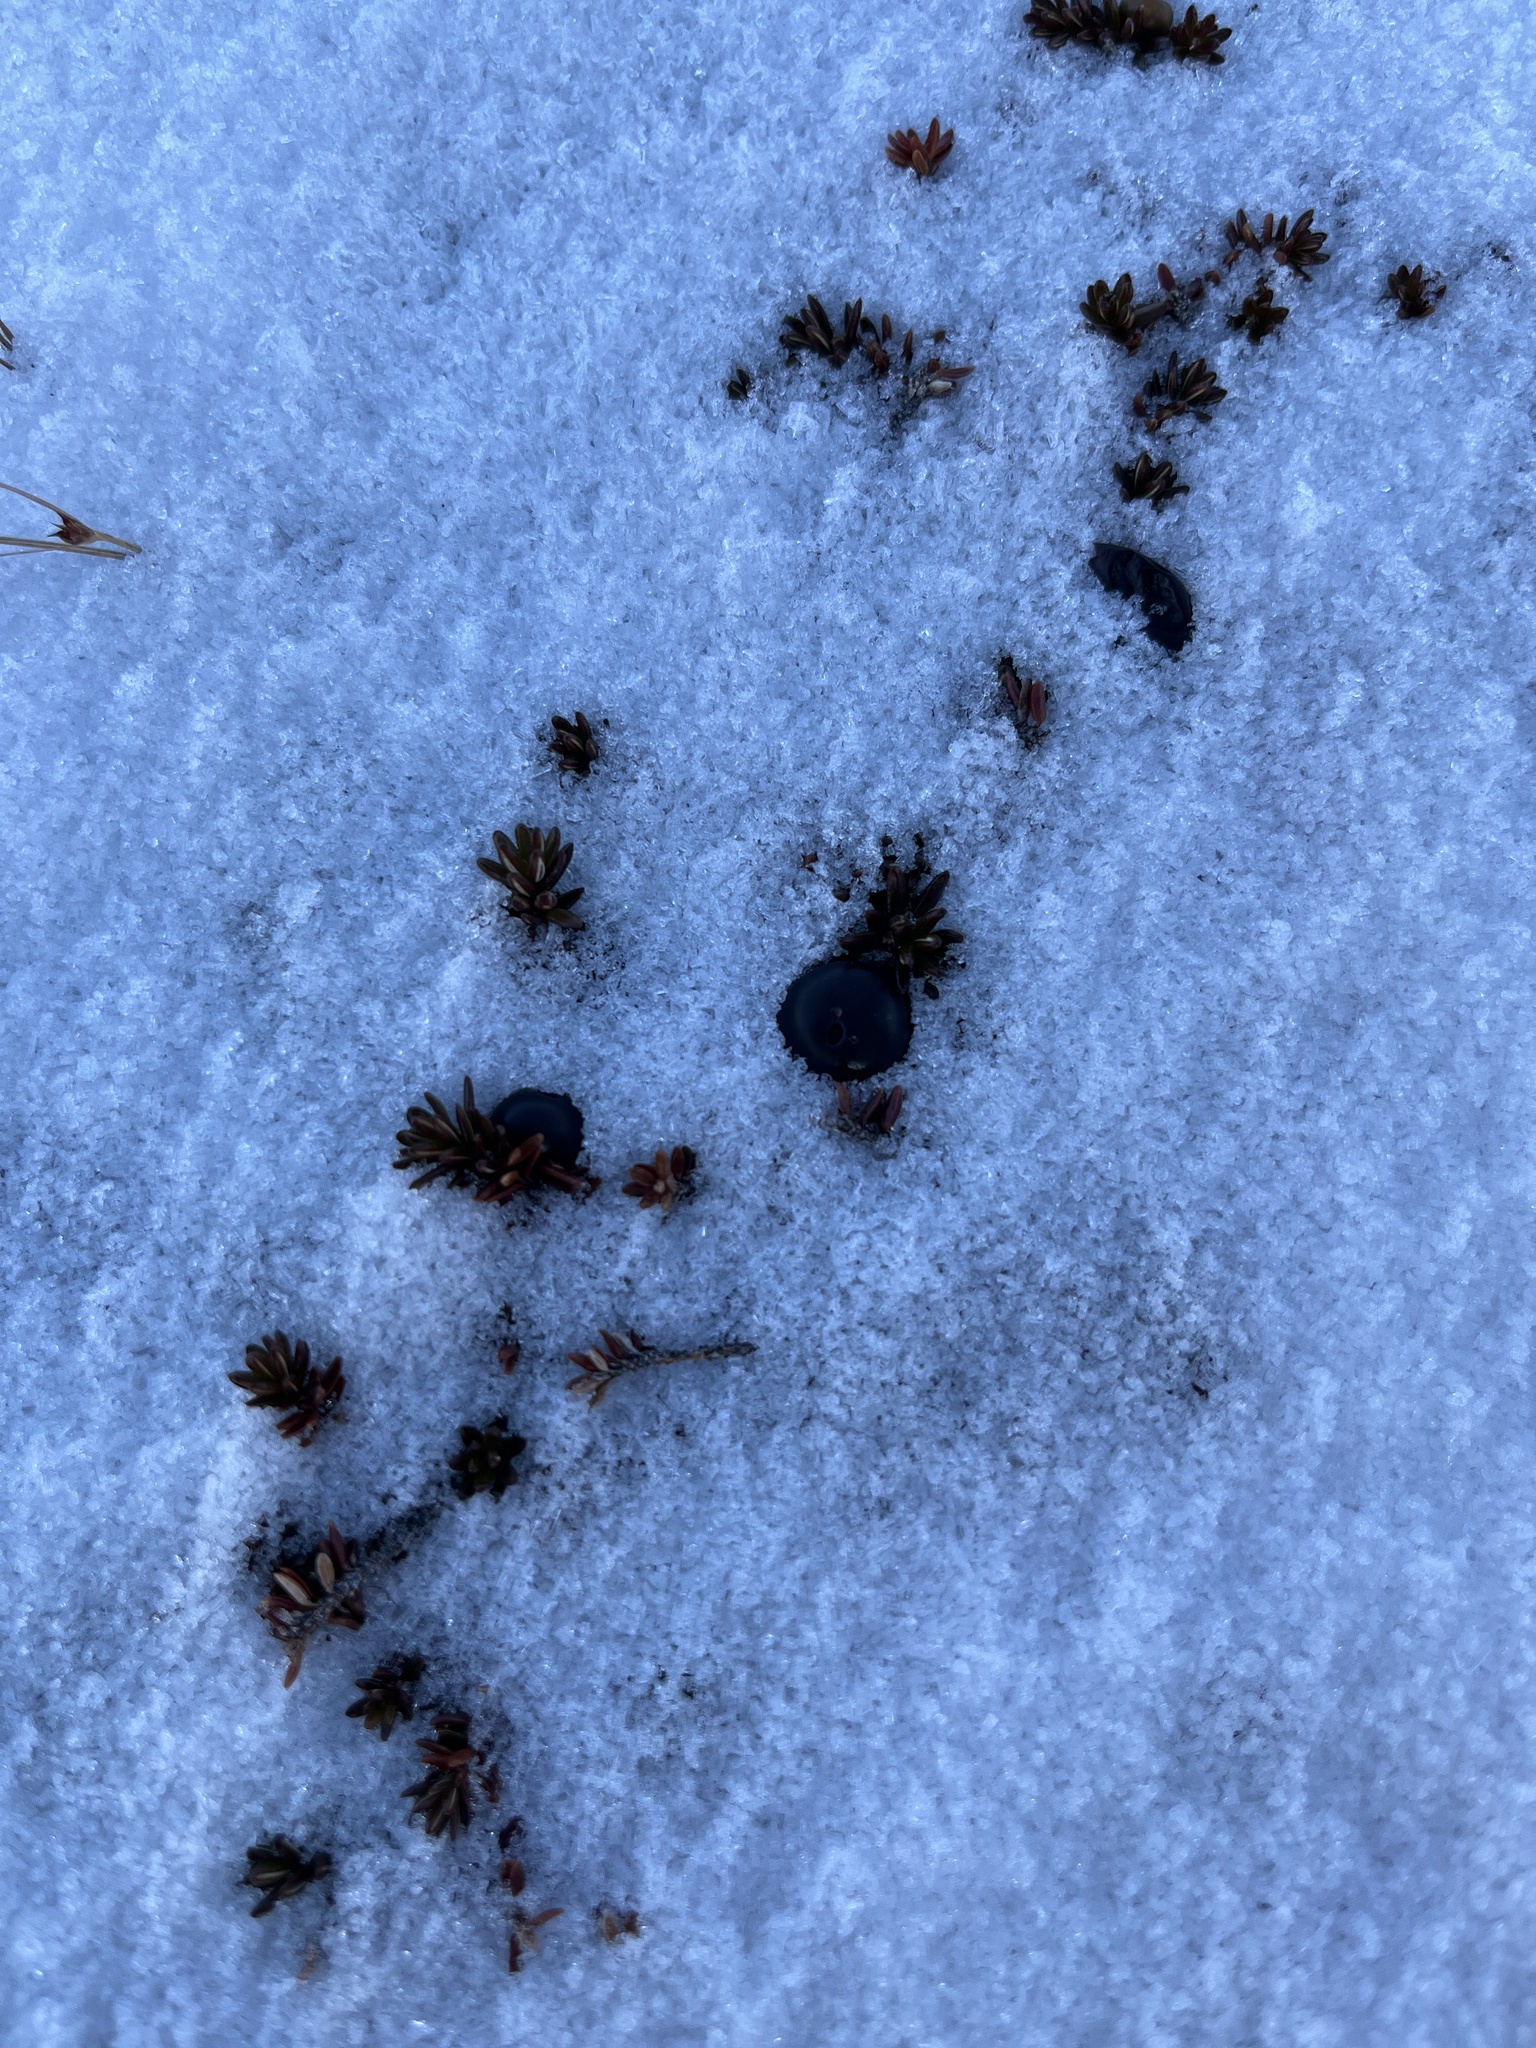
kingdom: Plantae
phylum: Tracheophyta
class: Magnoliopsida
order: Ericales
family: Ericaceae
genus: Empetrum
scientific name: Empetrum hermaphroditum
